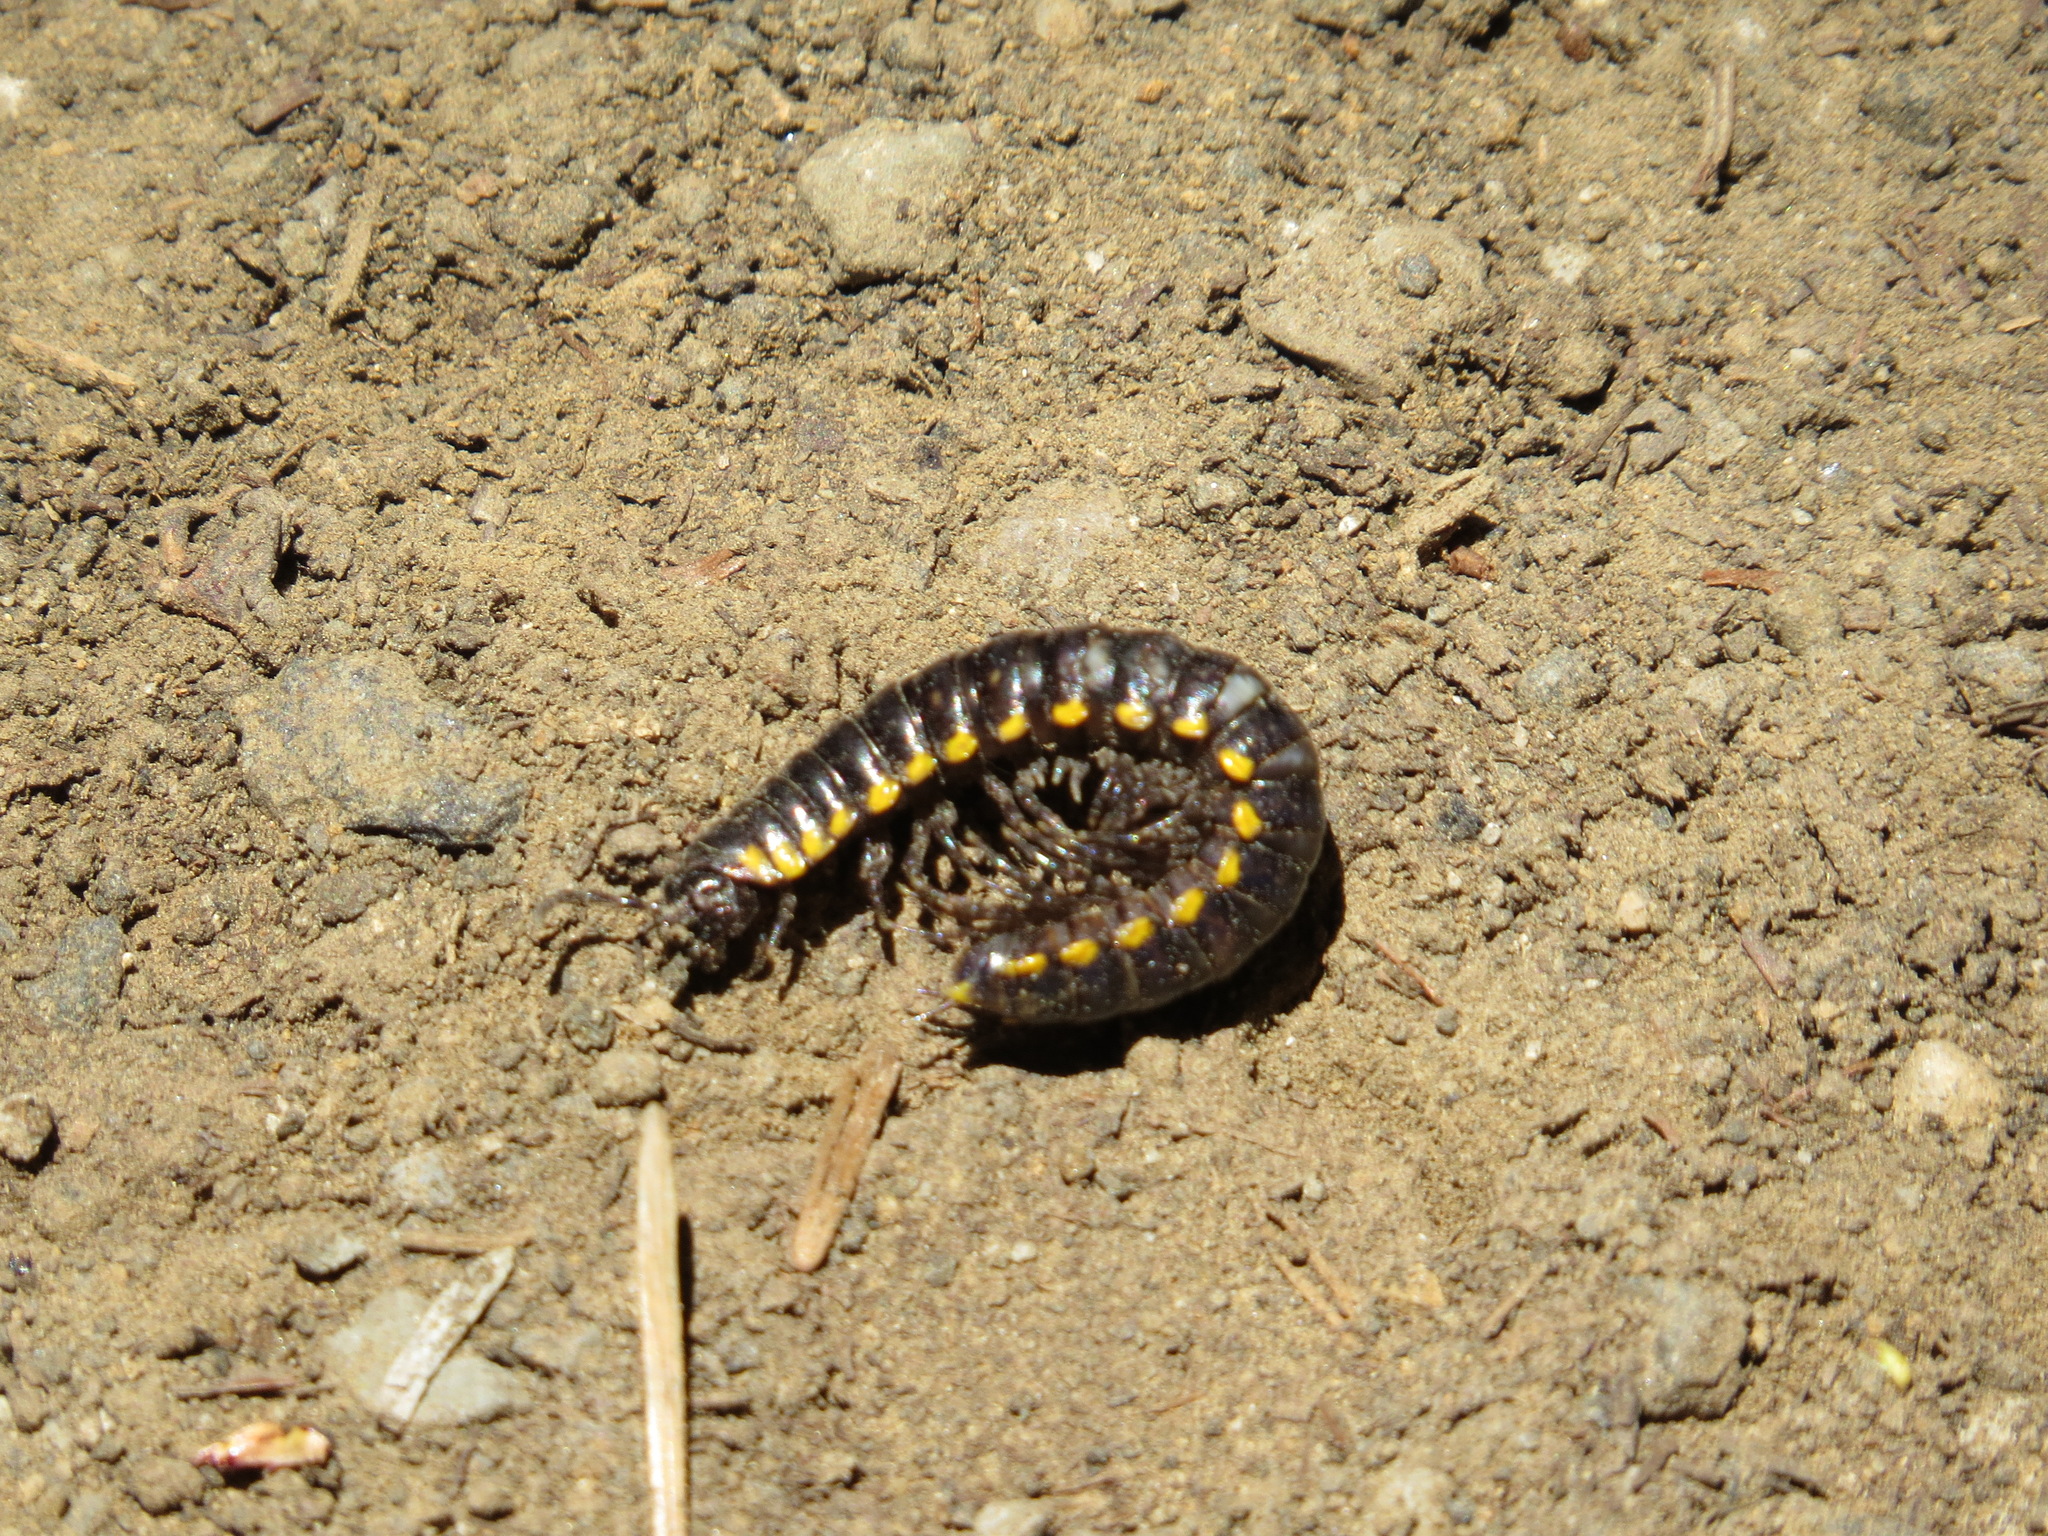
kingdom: Animalia
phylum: Arthropoda
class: Diplopoda
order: Polydesmida
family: Xystodesmidae
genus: Harpaphe
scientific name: Harpaphe haydeniana
